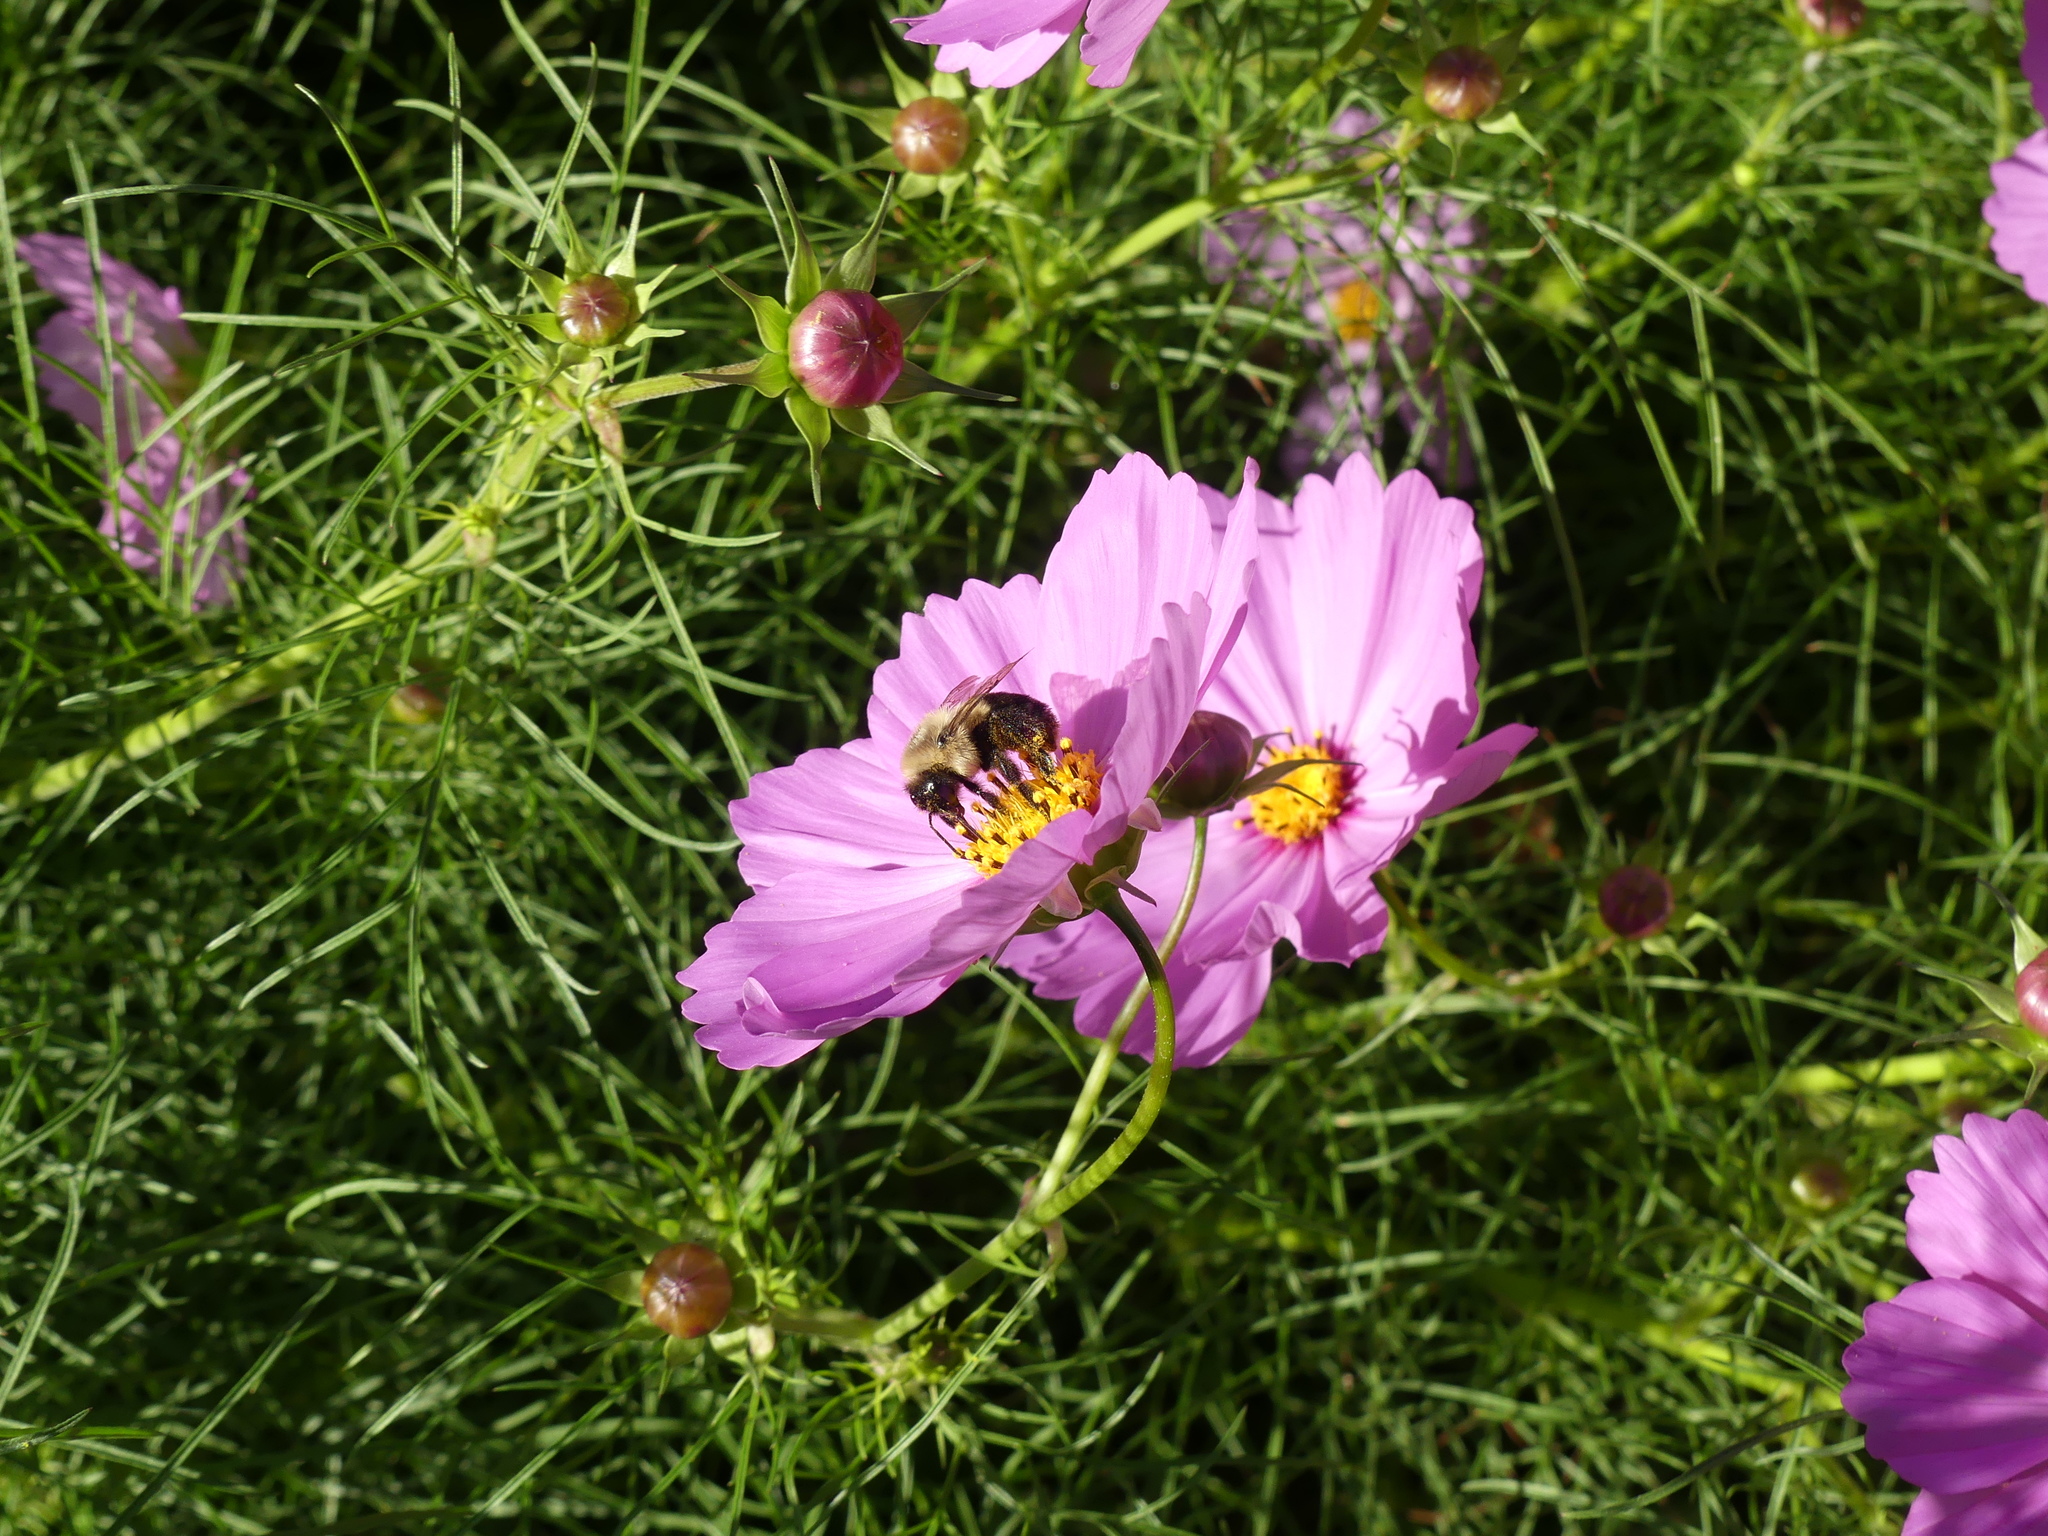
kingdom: Animalia
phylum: Arthropoda
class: Insecta
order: Hymenoptera
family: Apidae
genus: Bombus
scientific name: Bombus impatiens
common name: Common eastern bumble bee
